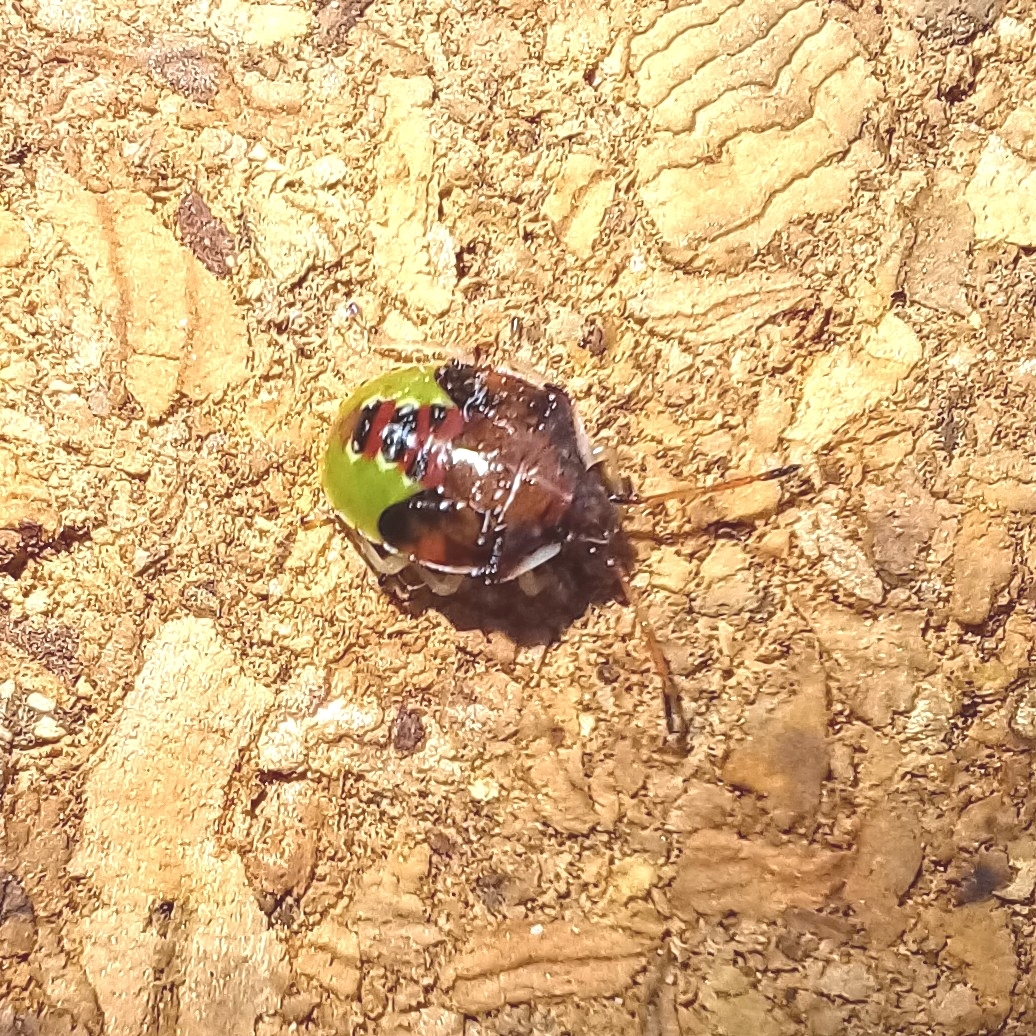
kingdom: Animalia
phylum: Arthropoda
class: Insecta
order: Hemiptera
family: Acanthosomatidae
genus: Elasmucha
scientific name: Elasmucha ferrugata
